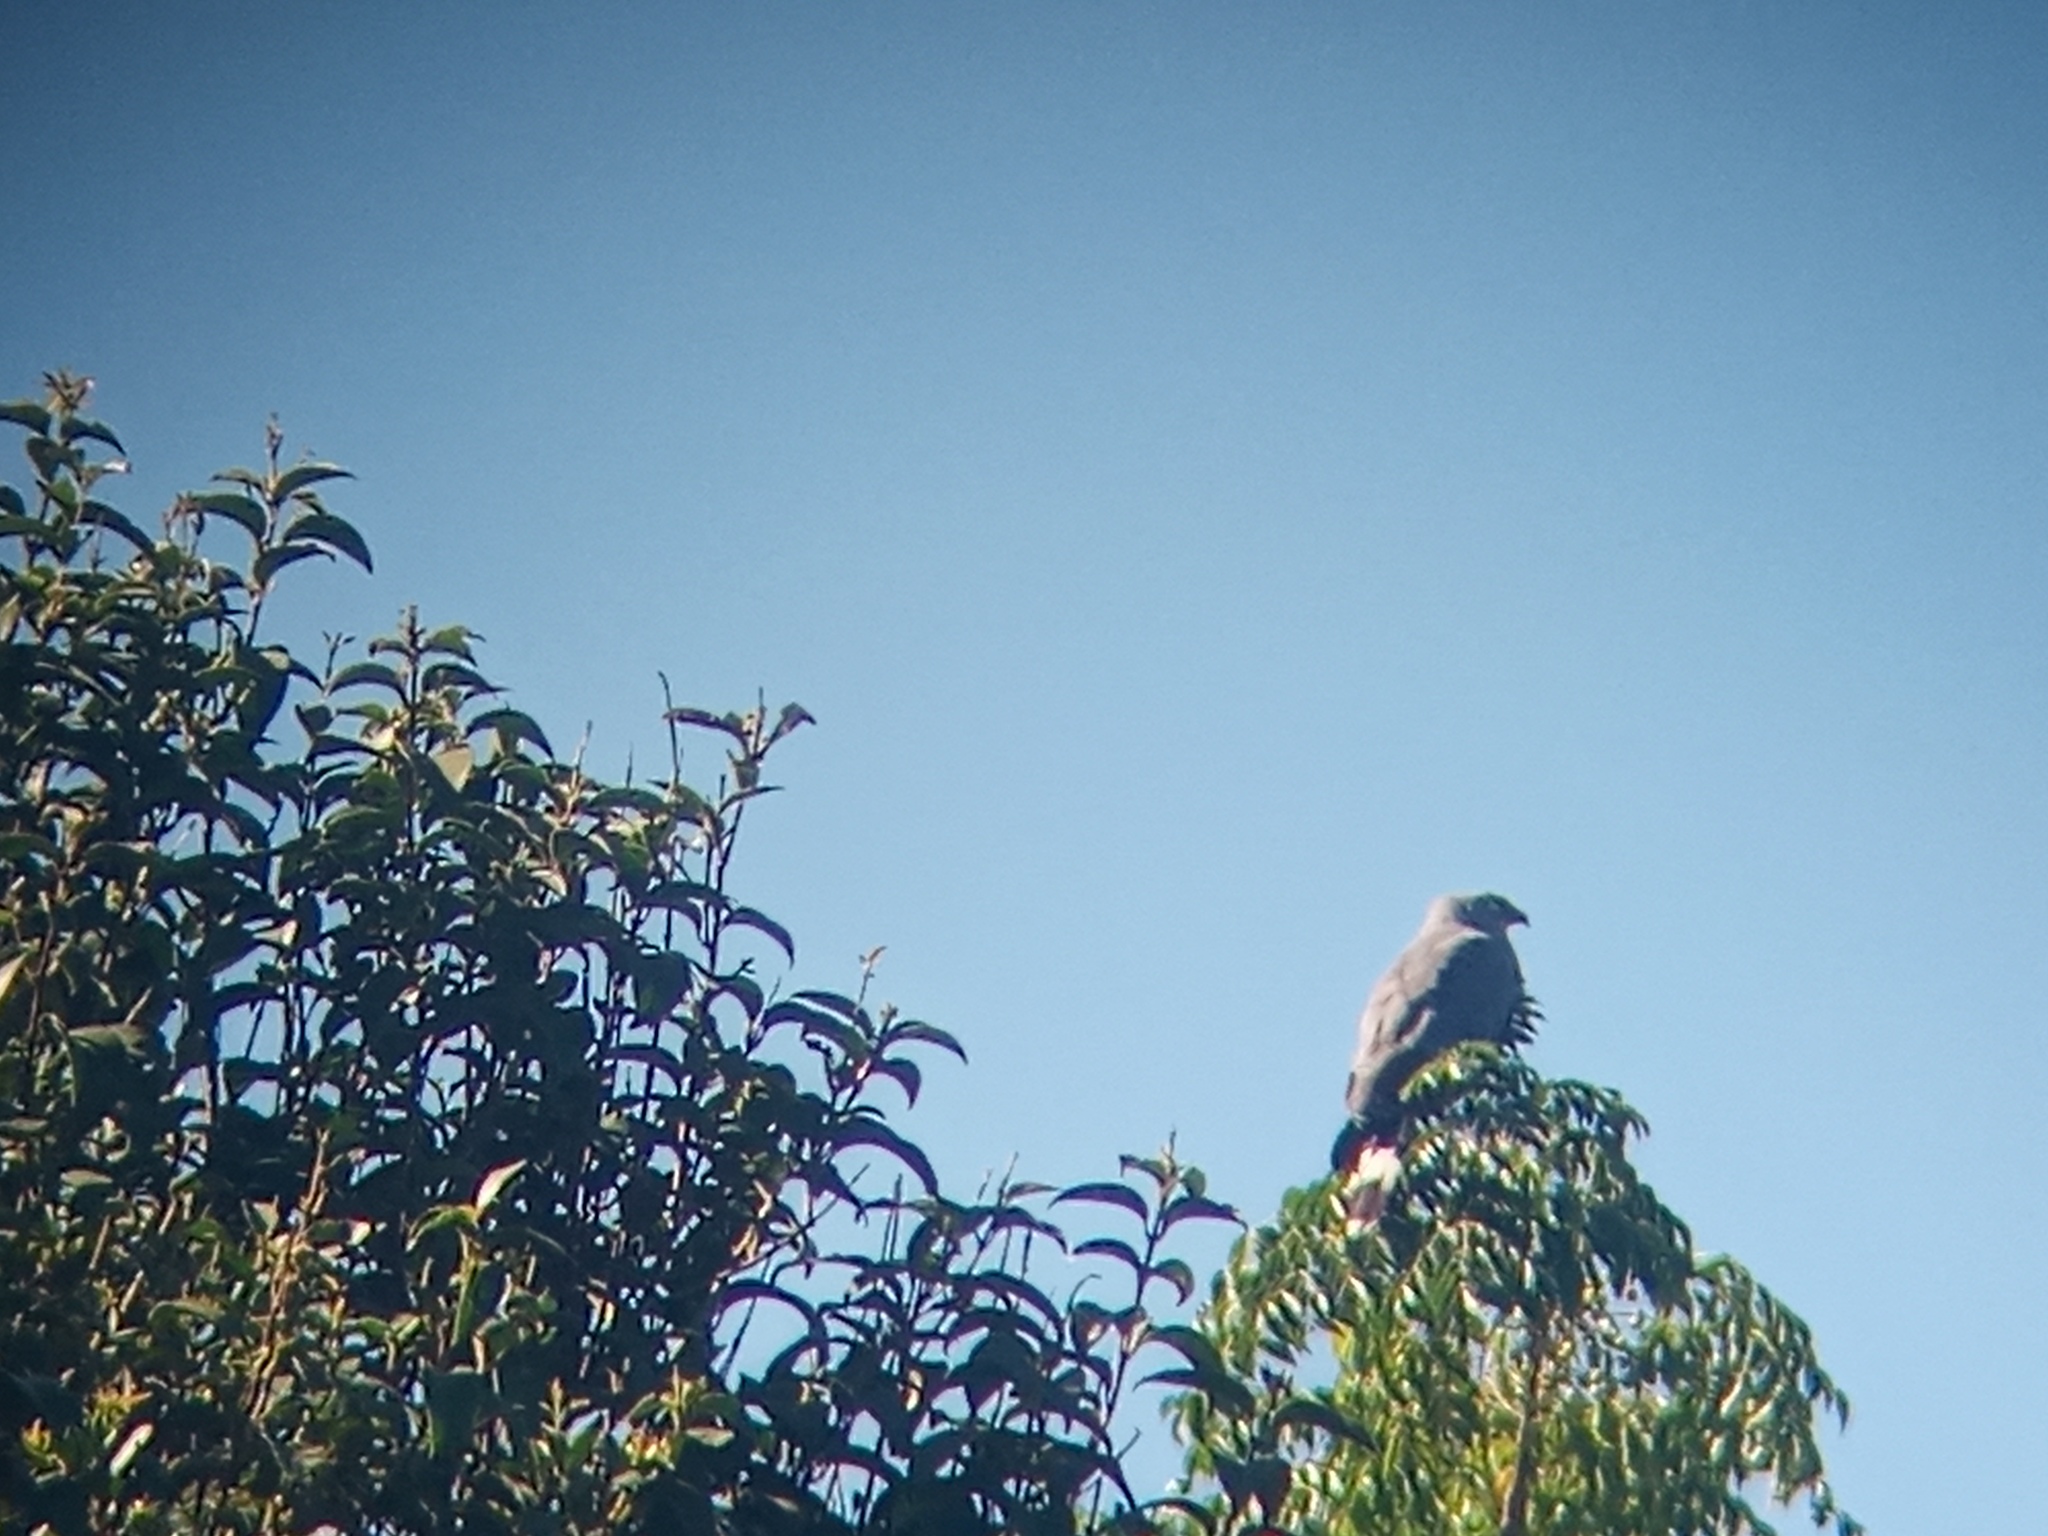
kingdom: Animalia
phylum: Chordata
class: Aves
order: Accipitriformes
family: Accipitridae
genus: Geranospiza
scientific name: Geranospiza caerulescens
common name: Crane hawk
